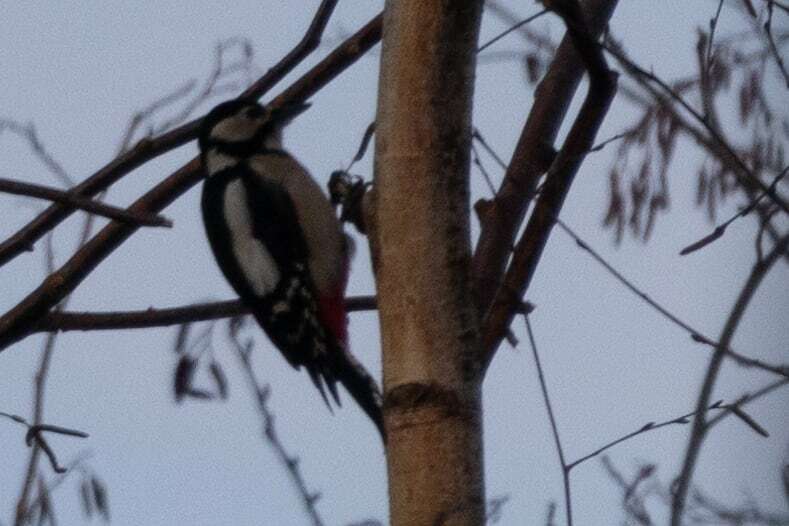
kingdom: Animalia
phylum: Chordata
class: Aves
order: Piciformes
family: Picidae
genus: Dendrocopos
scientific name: Dendrocopos major
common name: Great spotted woodpecker
